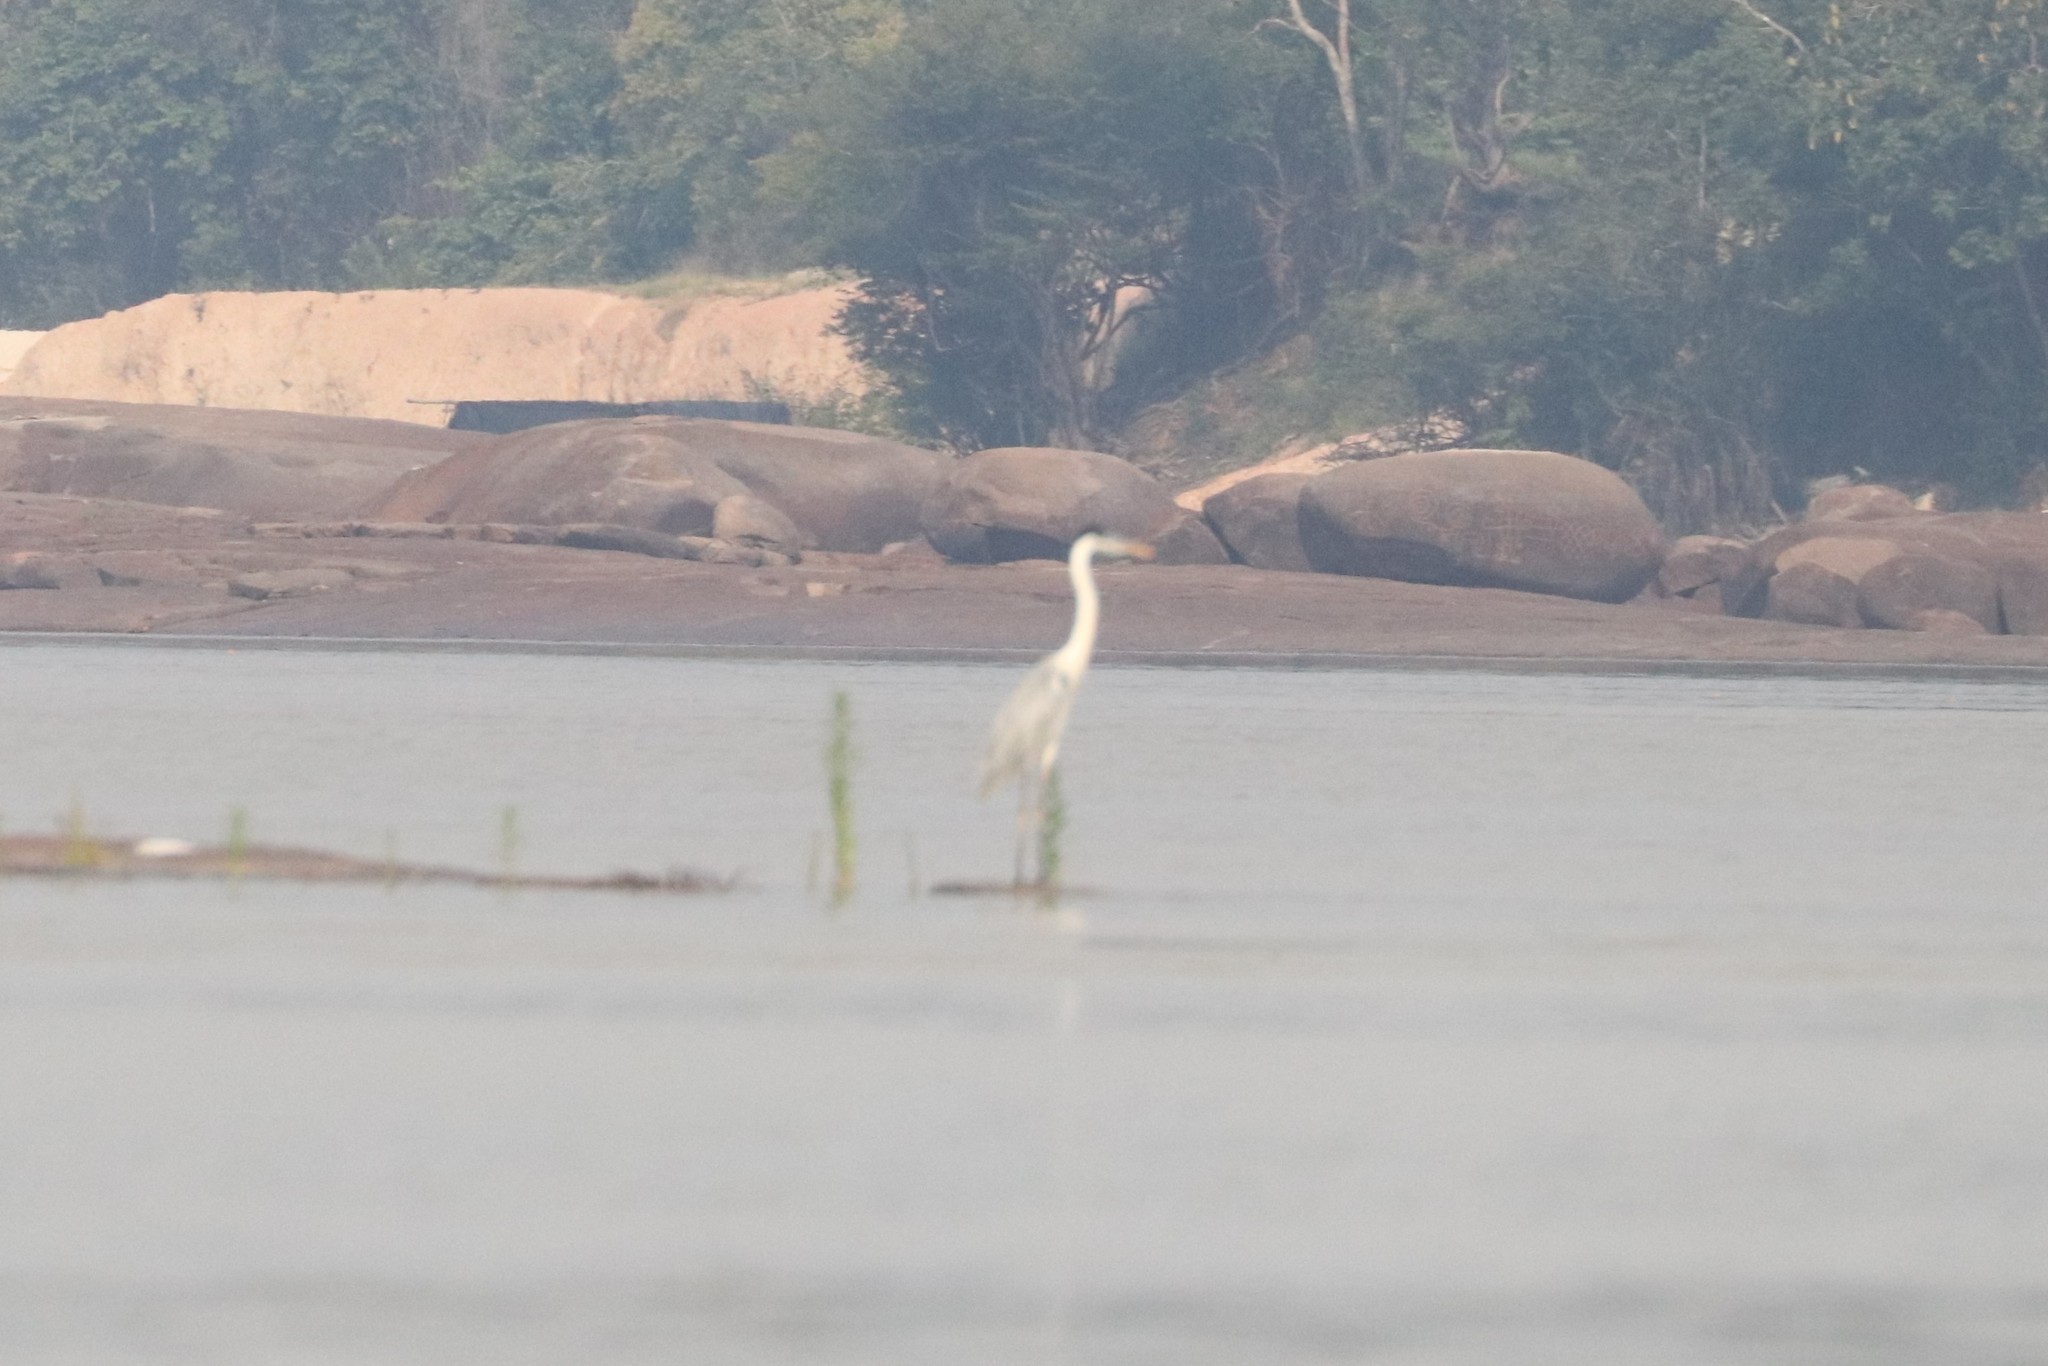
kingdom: Animalia
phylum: Chordata
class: Aves
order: Pelecaniformes
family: Ardeidae
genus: Ardea
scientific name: Ardea cocoi
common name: Cocoi heron
